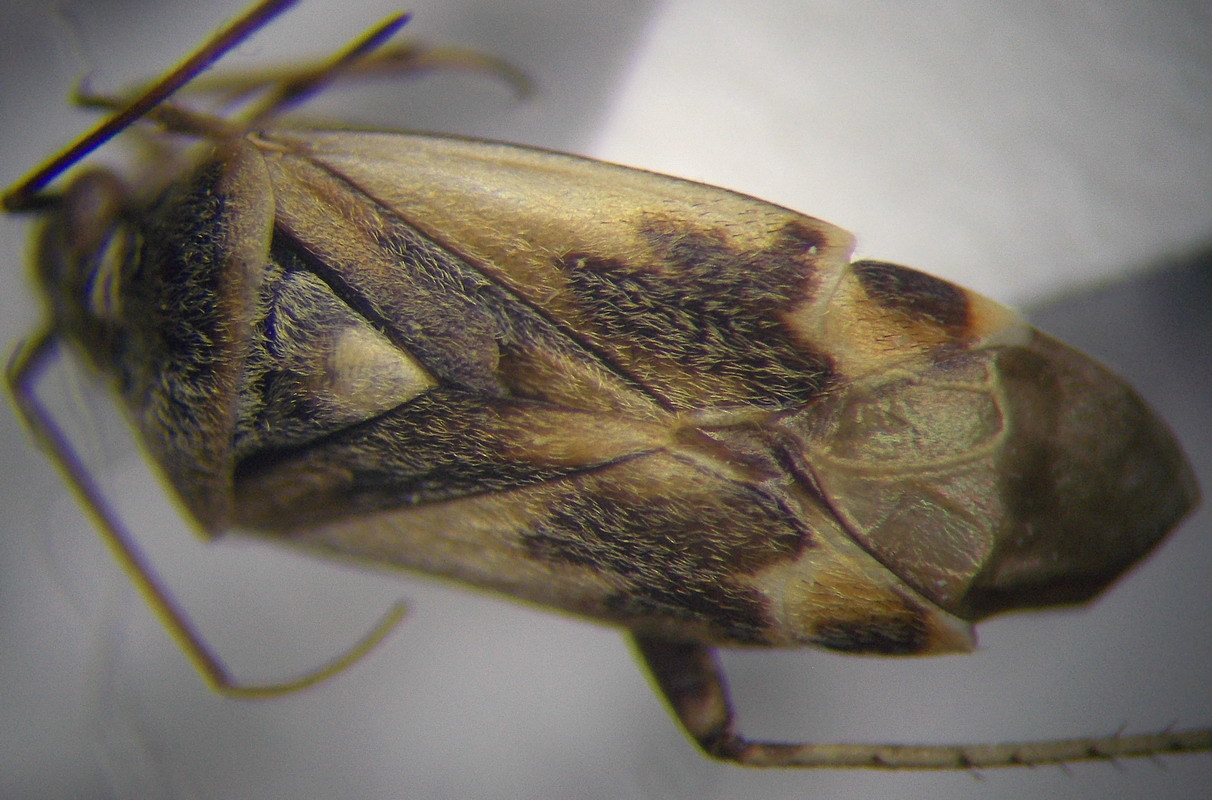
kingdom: Animalia
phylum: Arthropoda
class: Insecta
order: Hemiptera
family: Miridae
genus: Polymerus
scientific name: Polymerus cognatus
